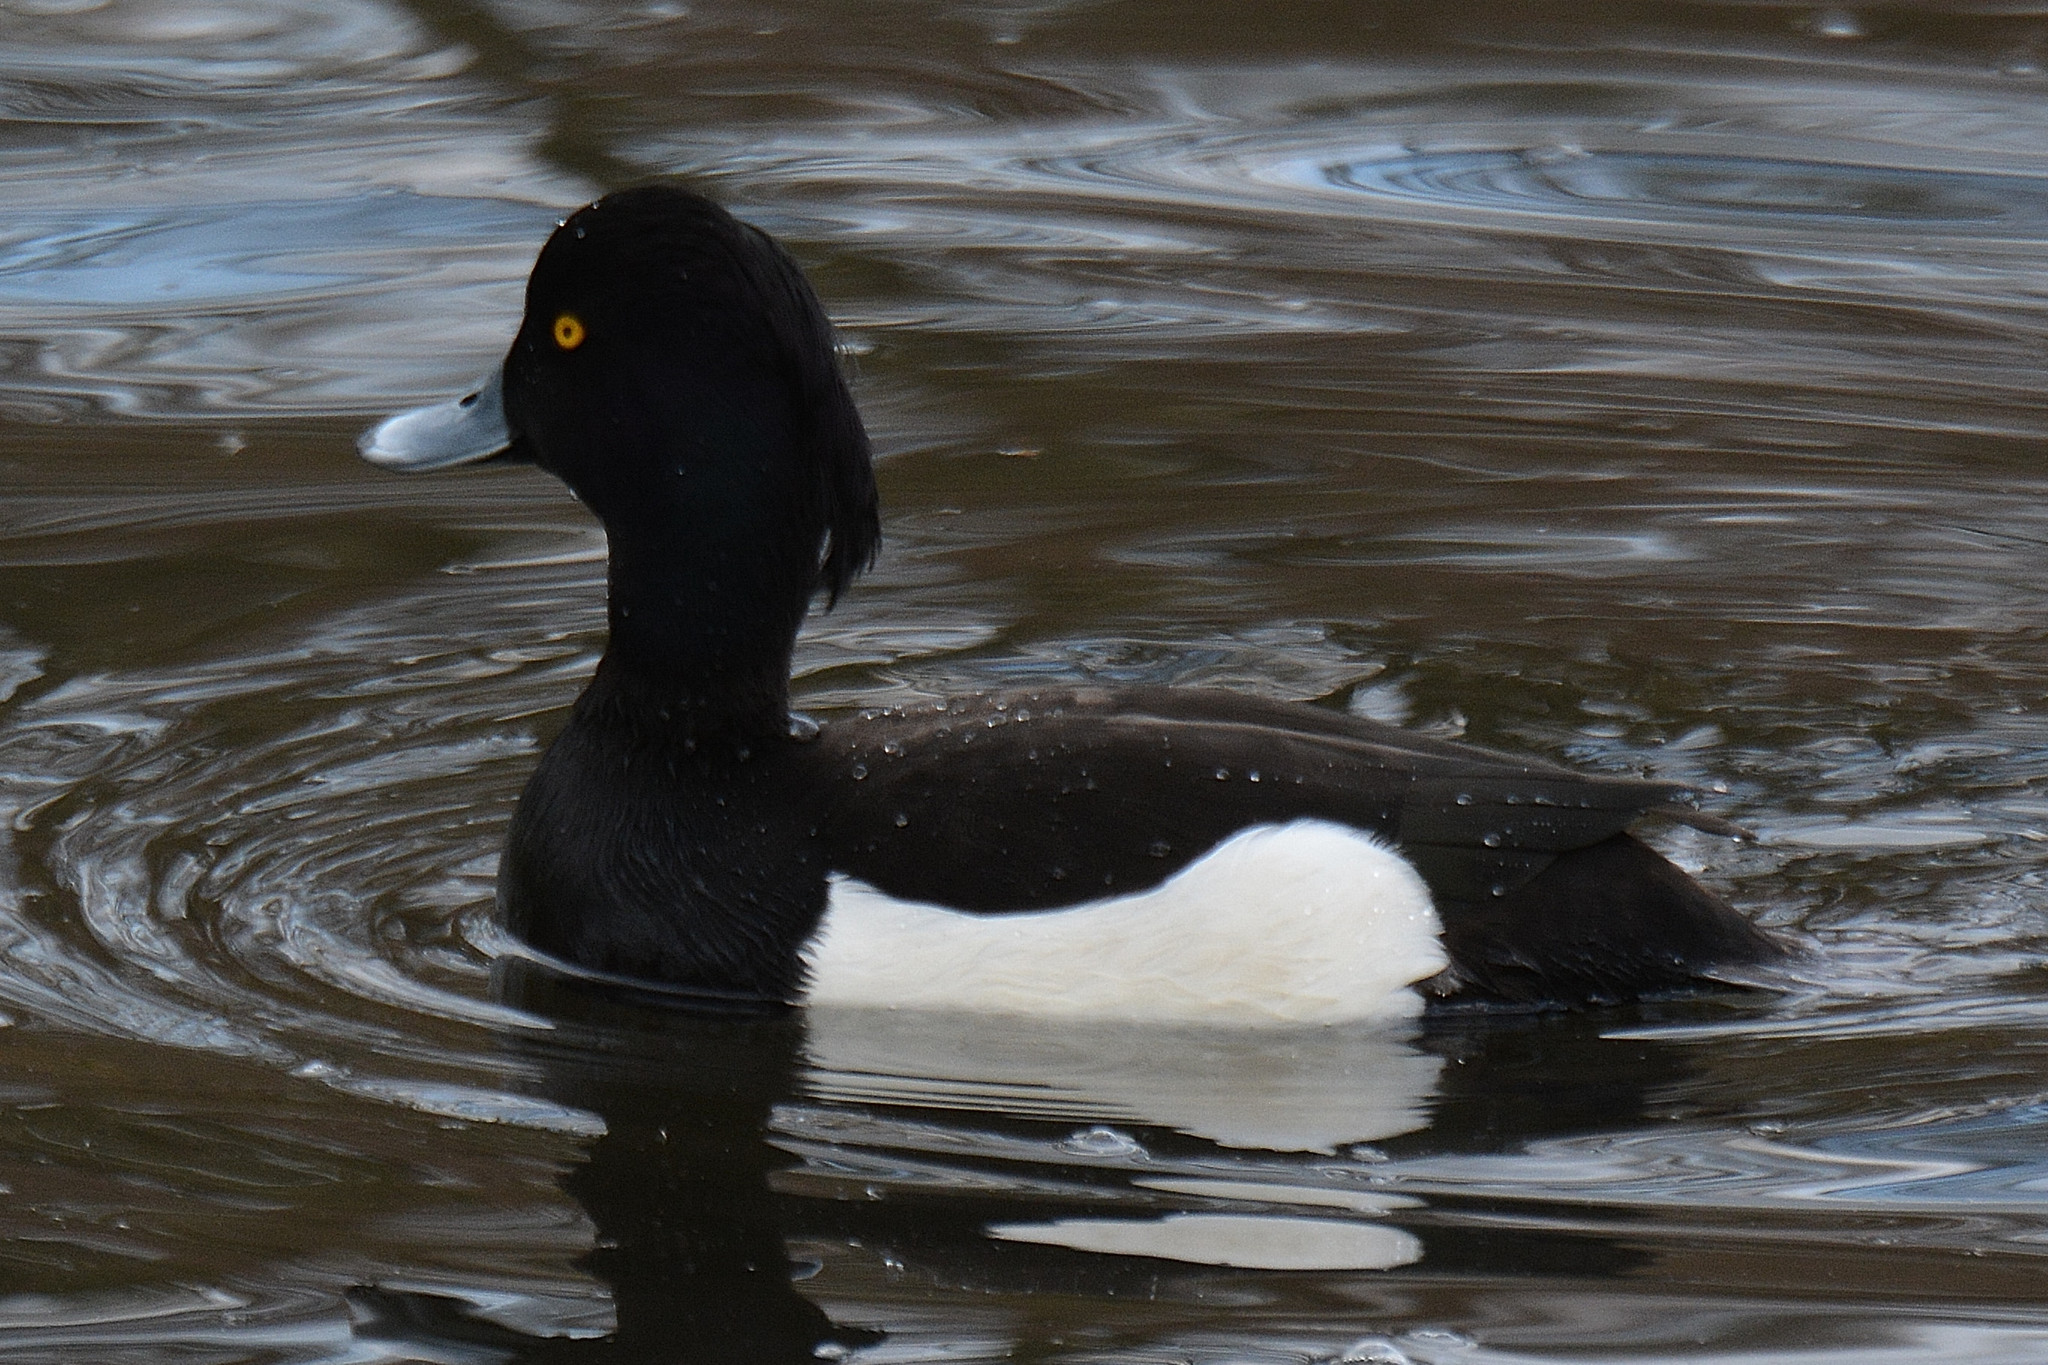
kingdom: Animalia
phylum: Chordata
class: Aves
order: Anseriformes
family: Anatidae
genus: Aythya
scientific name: Aythya fuligula
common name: Tufted duck
